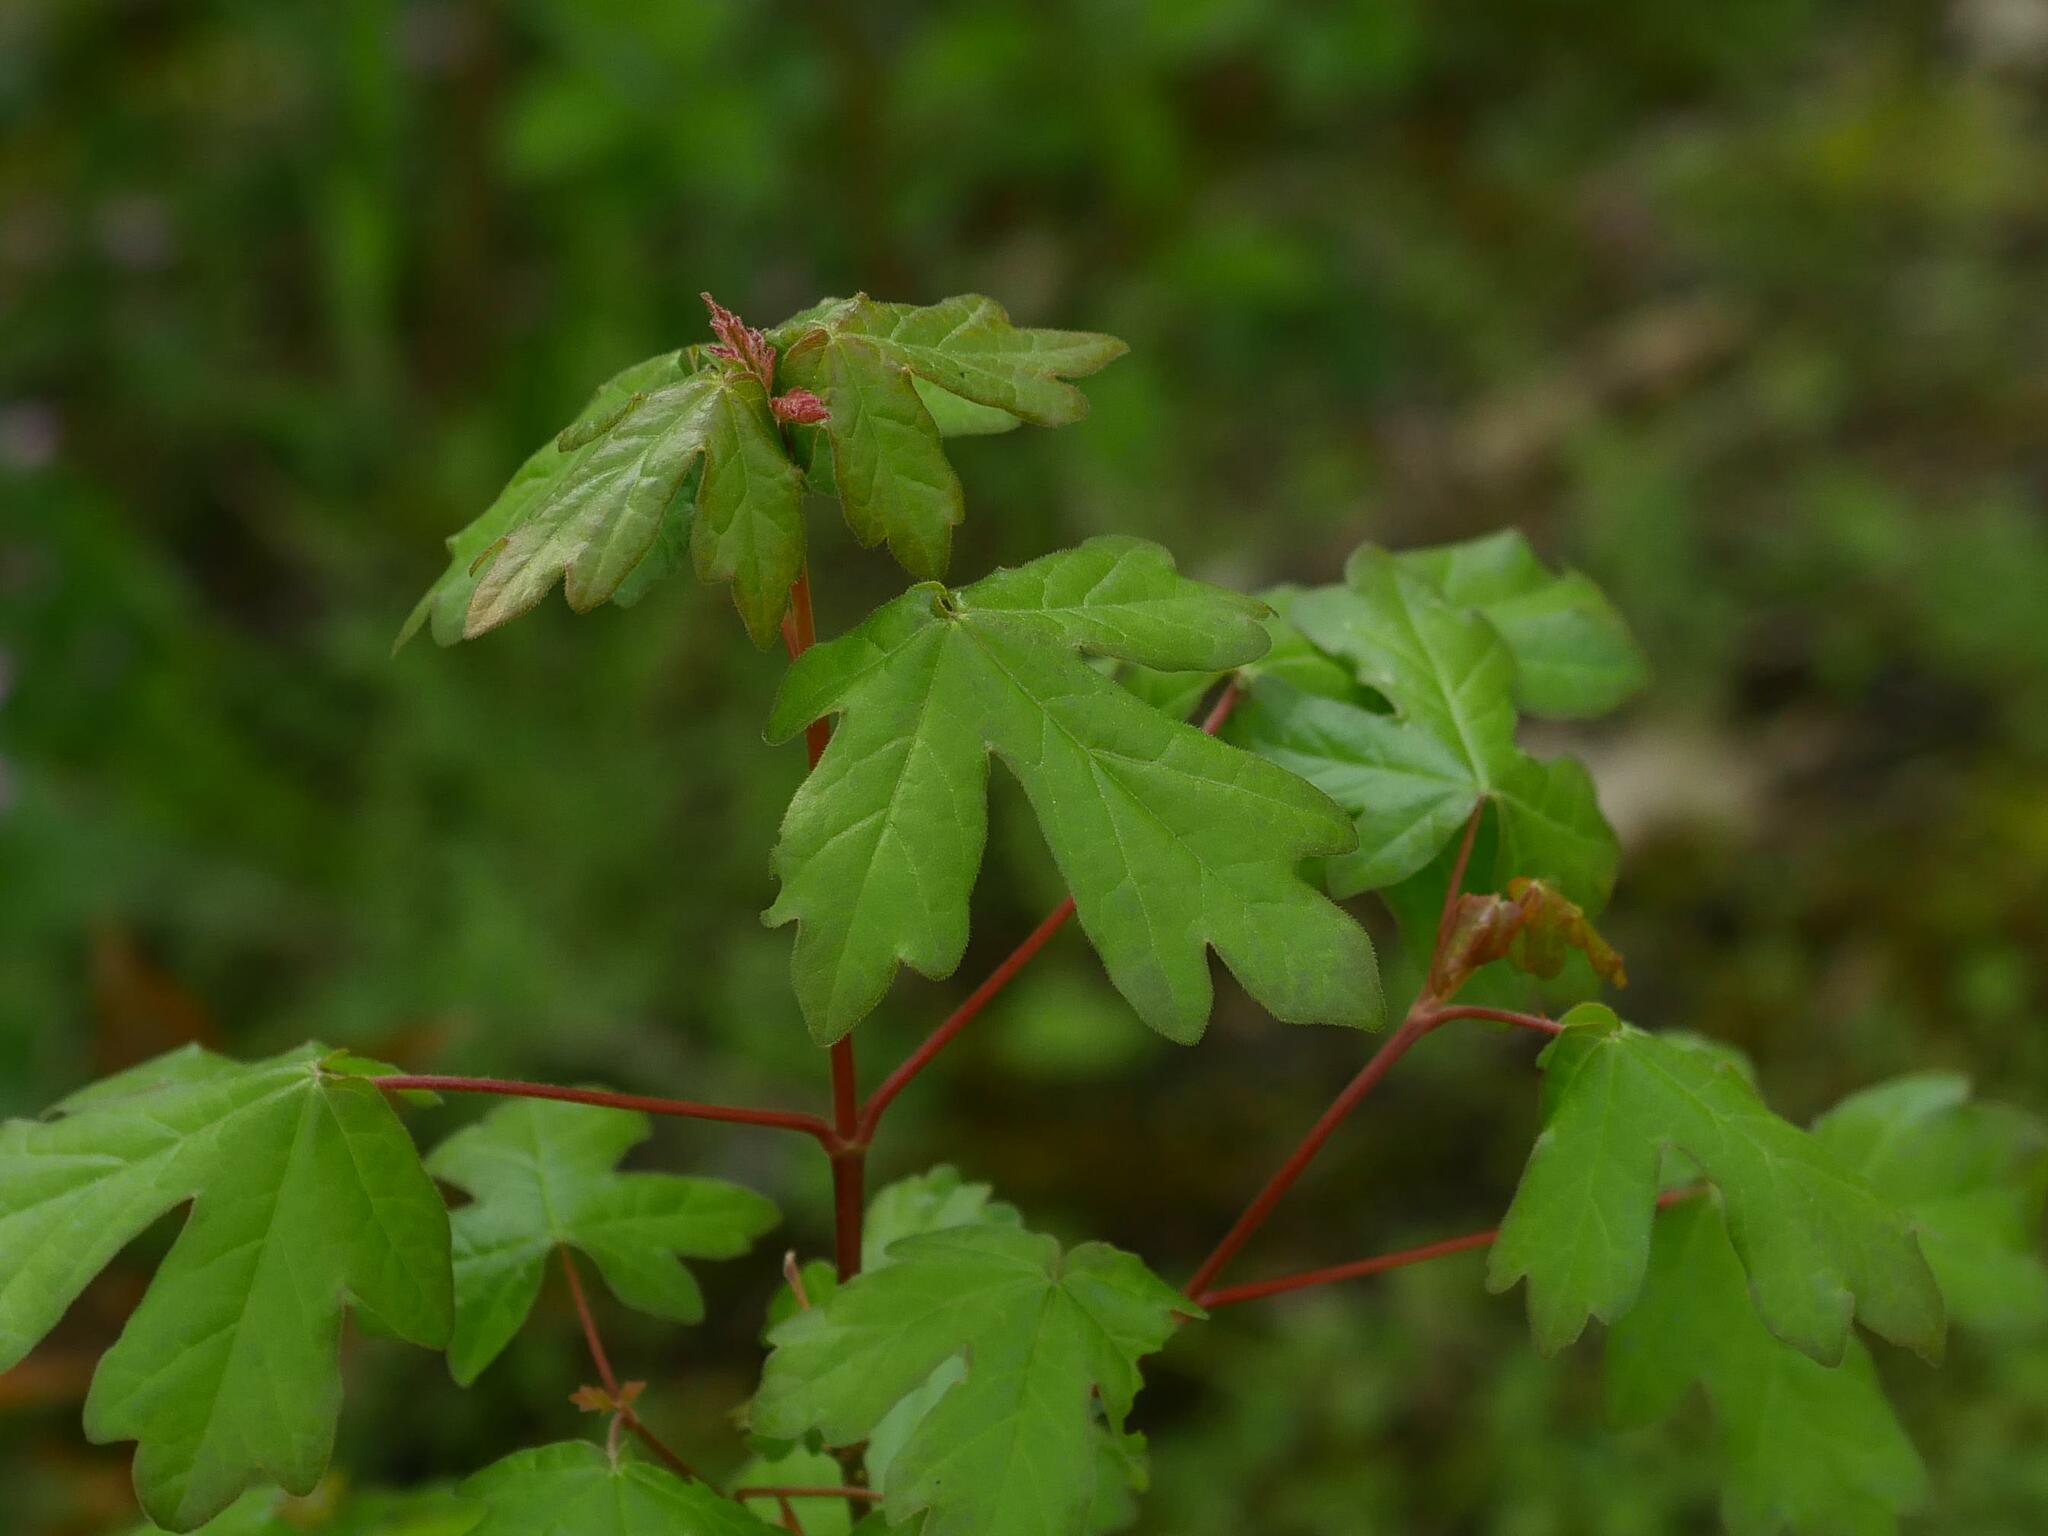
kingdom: Plantae
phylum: Tracheophyta
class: Magnoliopsida
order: Sapindales
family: Sapindaceae
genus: Acer
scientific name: Acer campestre
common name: Field maple
